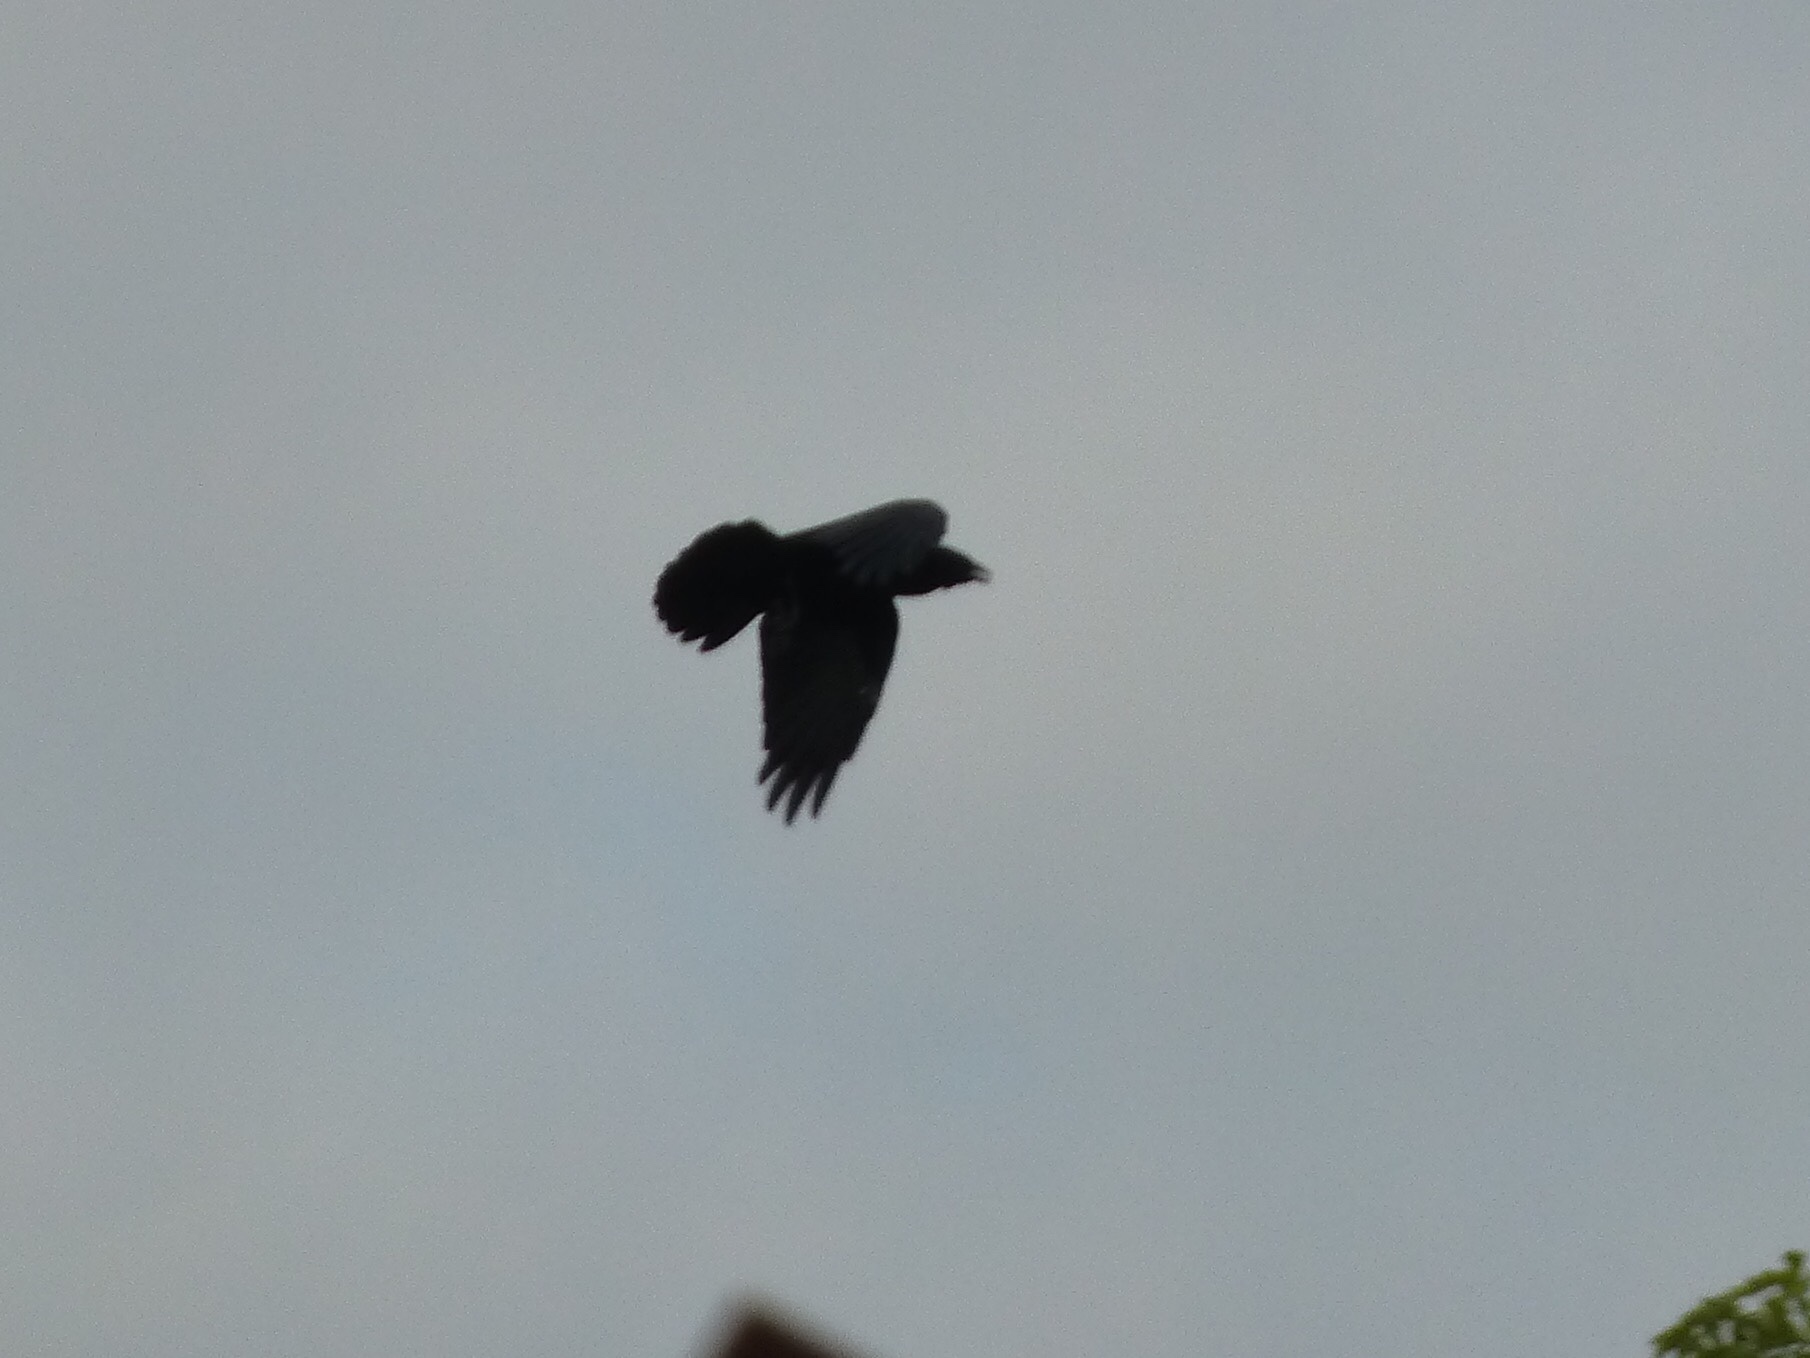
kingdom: Animalia
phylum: Chordata
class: Aves
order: Passeriformes
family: Corvidae
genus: Corvus
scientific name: Corvus brachyrhynchos
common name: American crow
